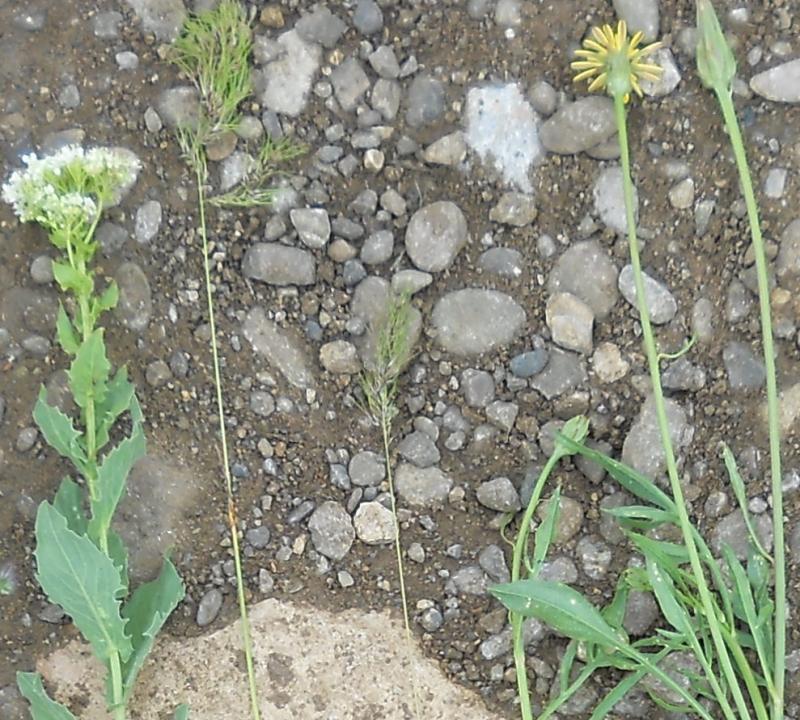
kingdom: Plantae
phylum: Tracheophyta
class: Liliopsida
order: Poales
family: Poaceae
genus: Poa
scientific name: Poa bulbosa
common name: Bulbous bluegrass
